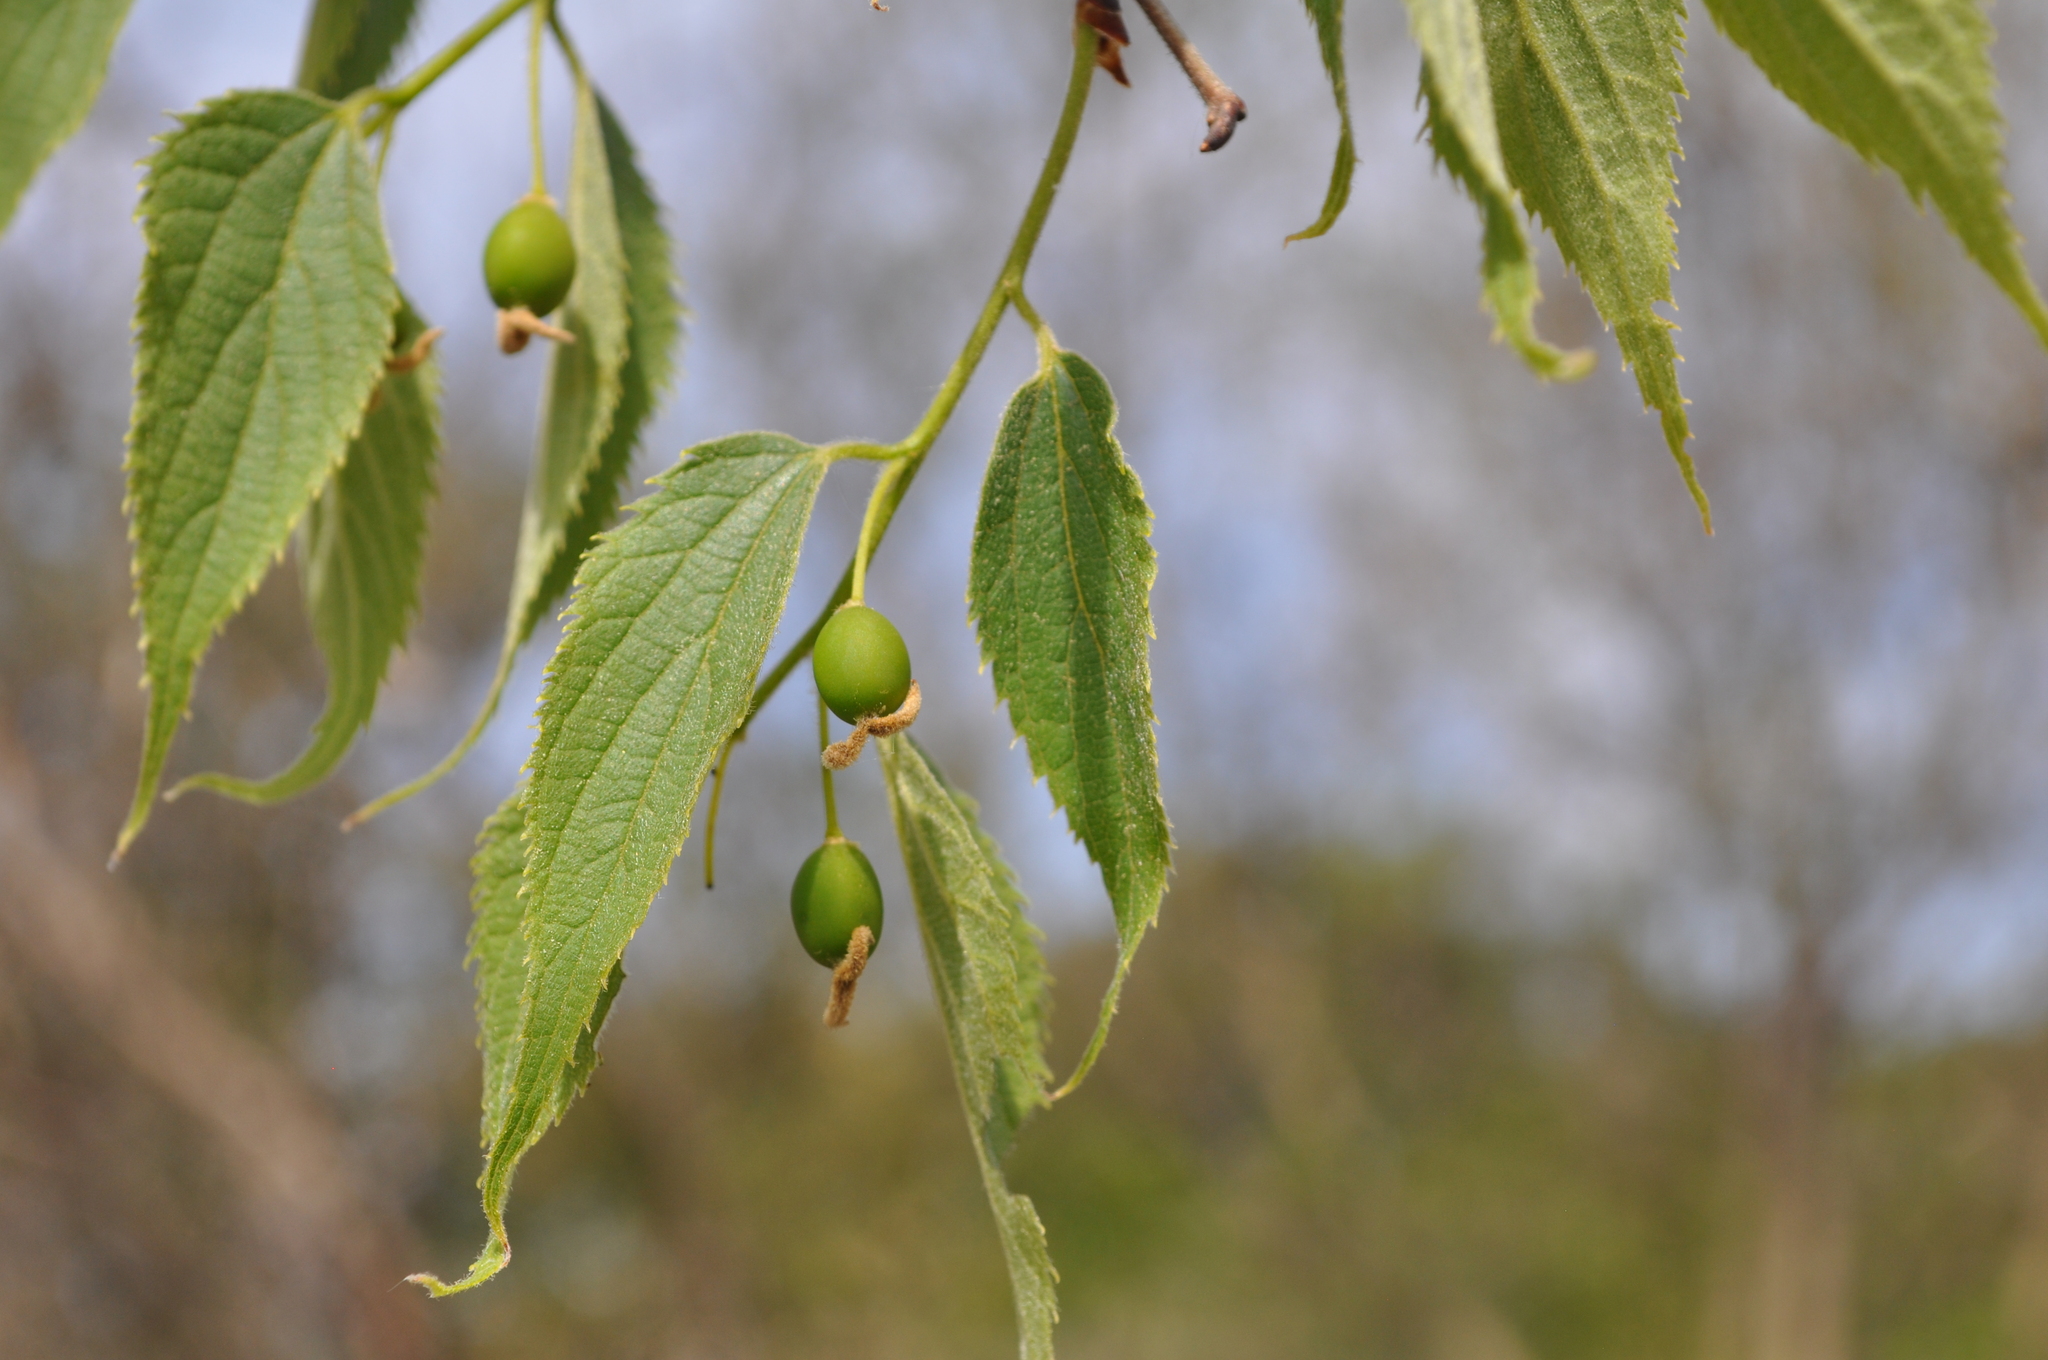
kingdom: Plantae
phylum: Tracheophyta
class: Magnoliopsida
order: Rosales
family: Cannabaceae
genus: Celtis
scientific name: Celtis australis
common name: European hackberry
